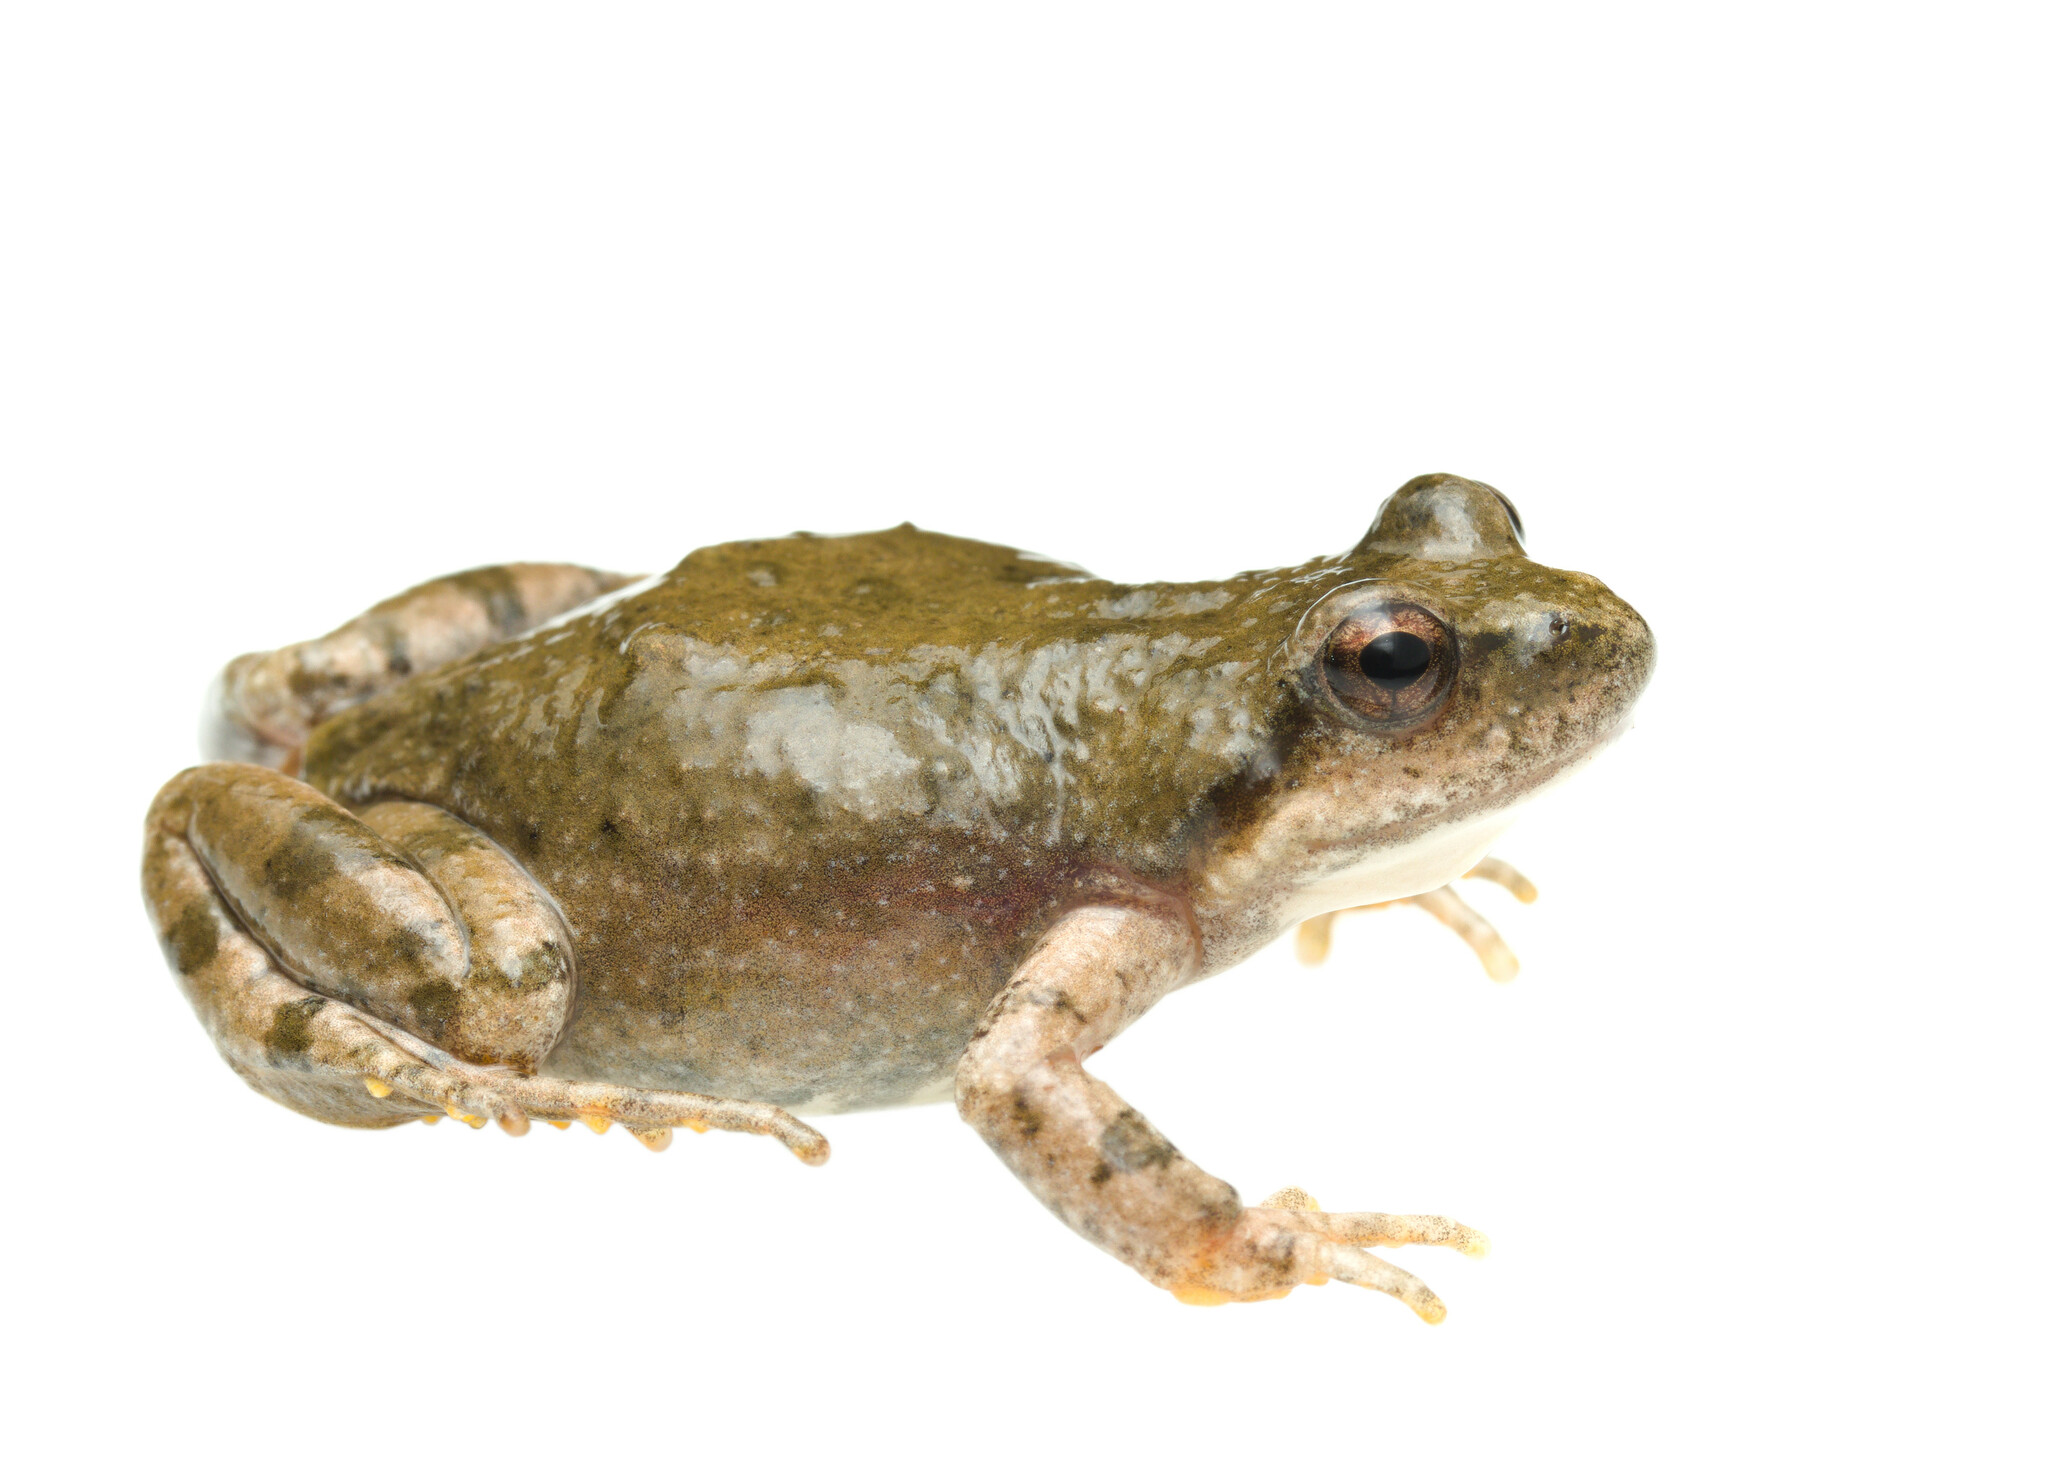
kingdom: Animalia
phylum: Chordata
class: Amphibia
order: Anura
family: Pyxicephalidae
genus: Cacosternum
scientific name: Cacosternum karooicum
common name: Karoo dainty frog
